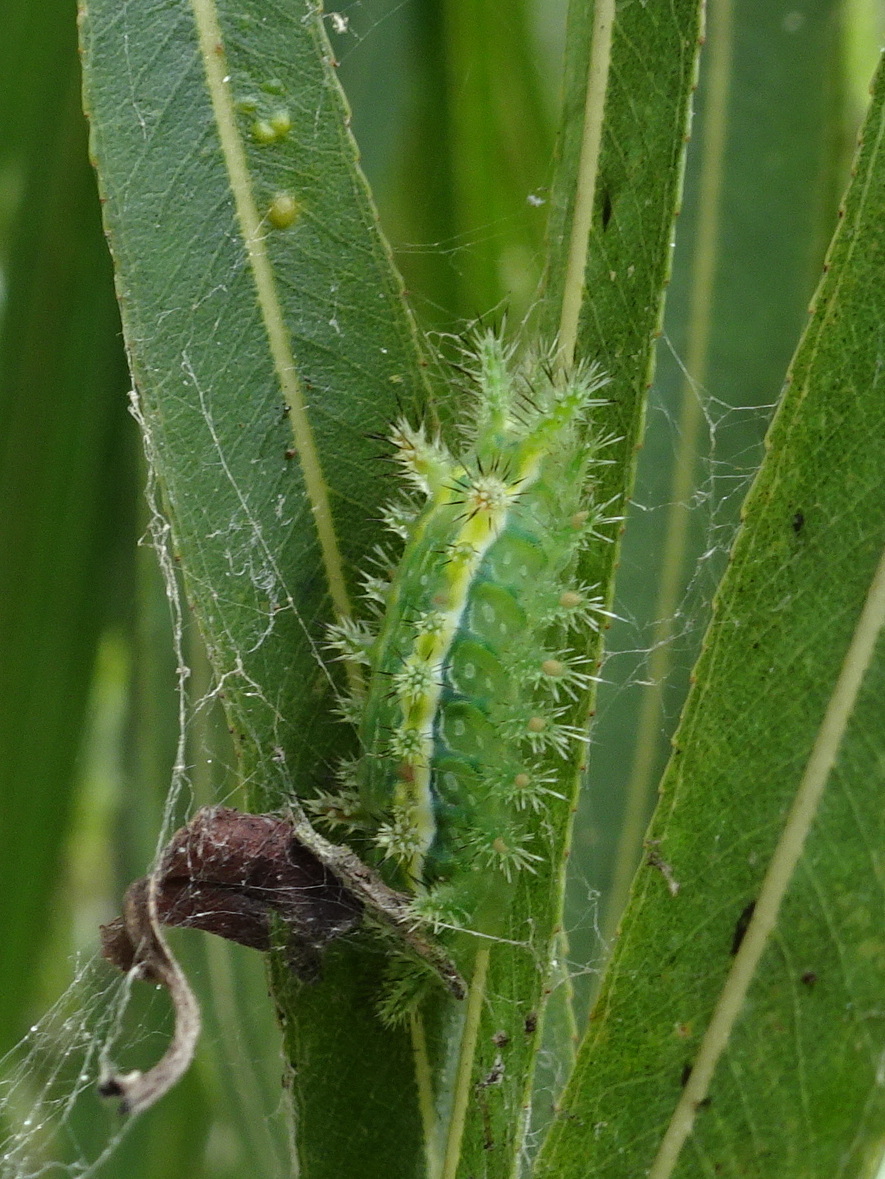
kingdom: Animalia
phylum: Arthropoda
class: Insecta
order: Lepidoptera
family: Limacodidae
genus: Euclea
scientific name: Euclea delphinii
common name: Spiny oak-slug moth
